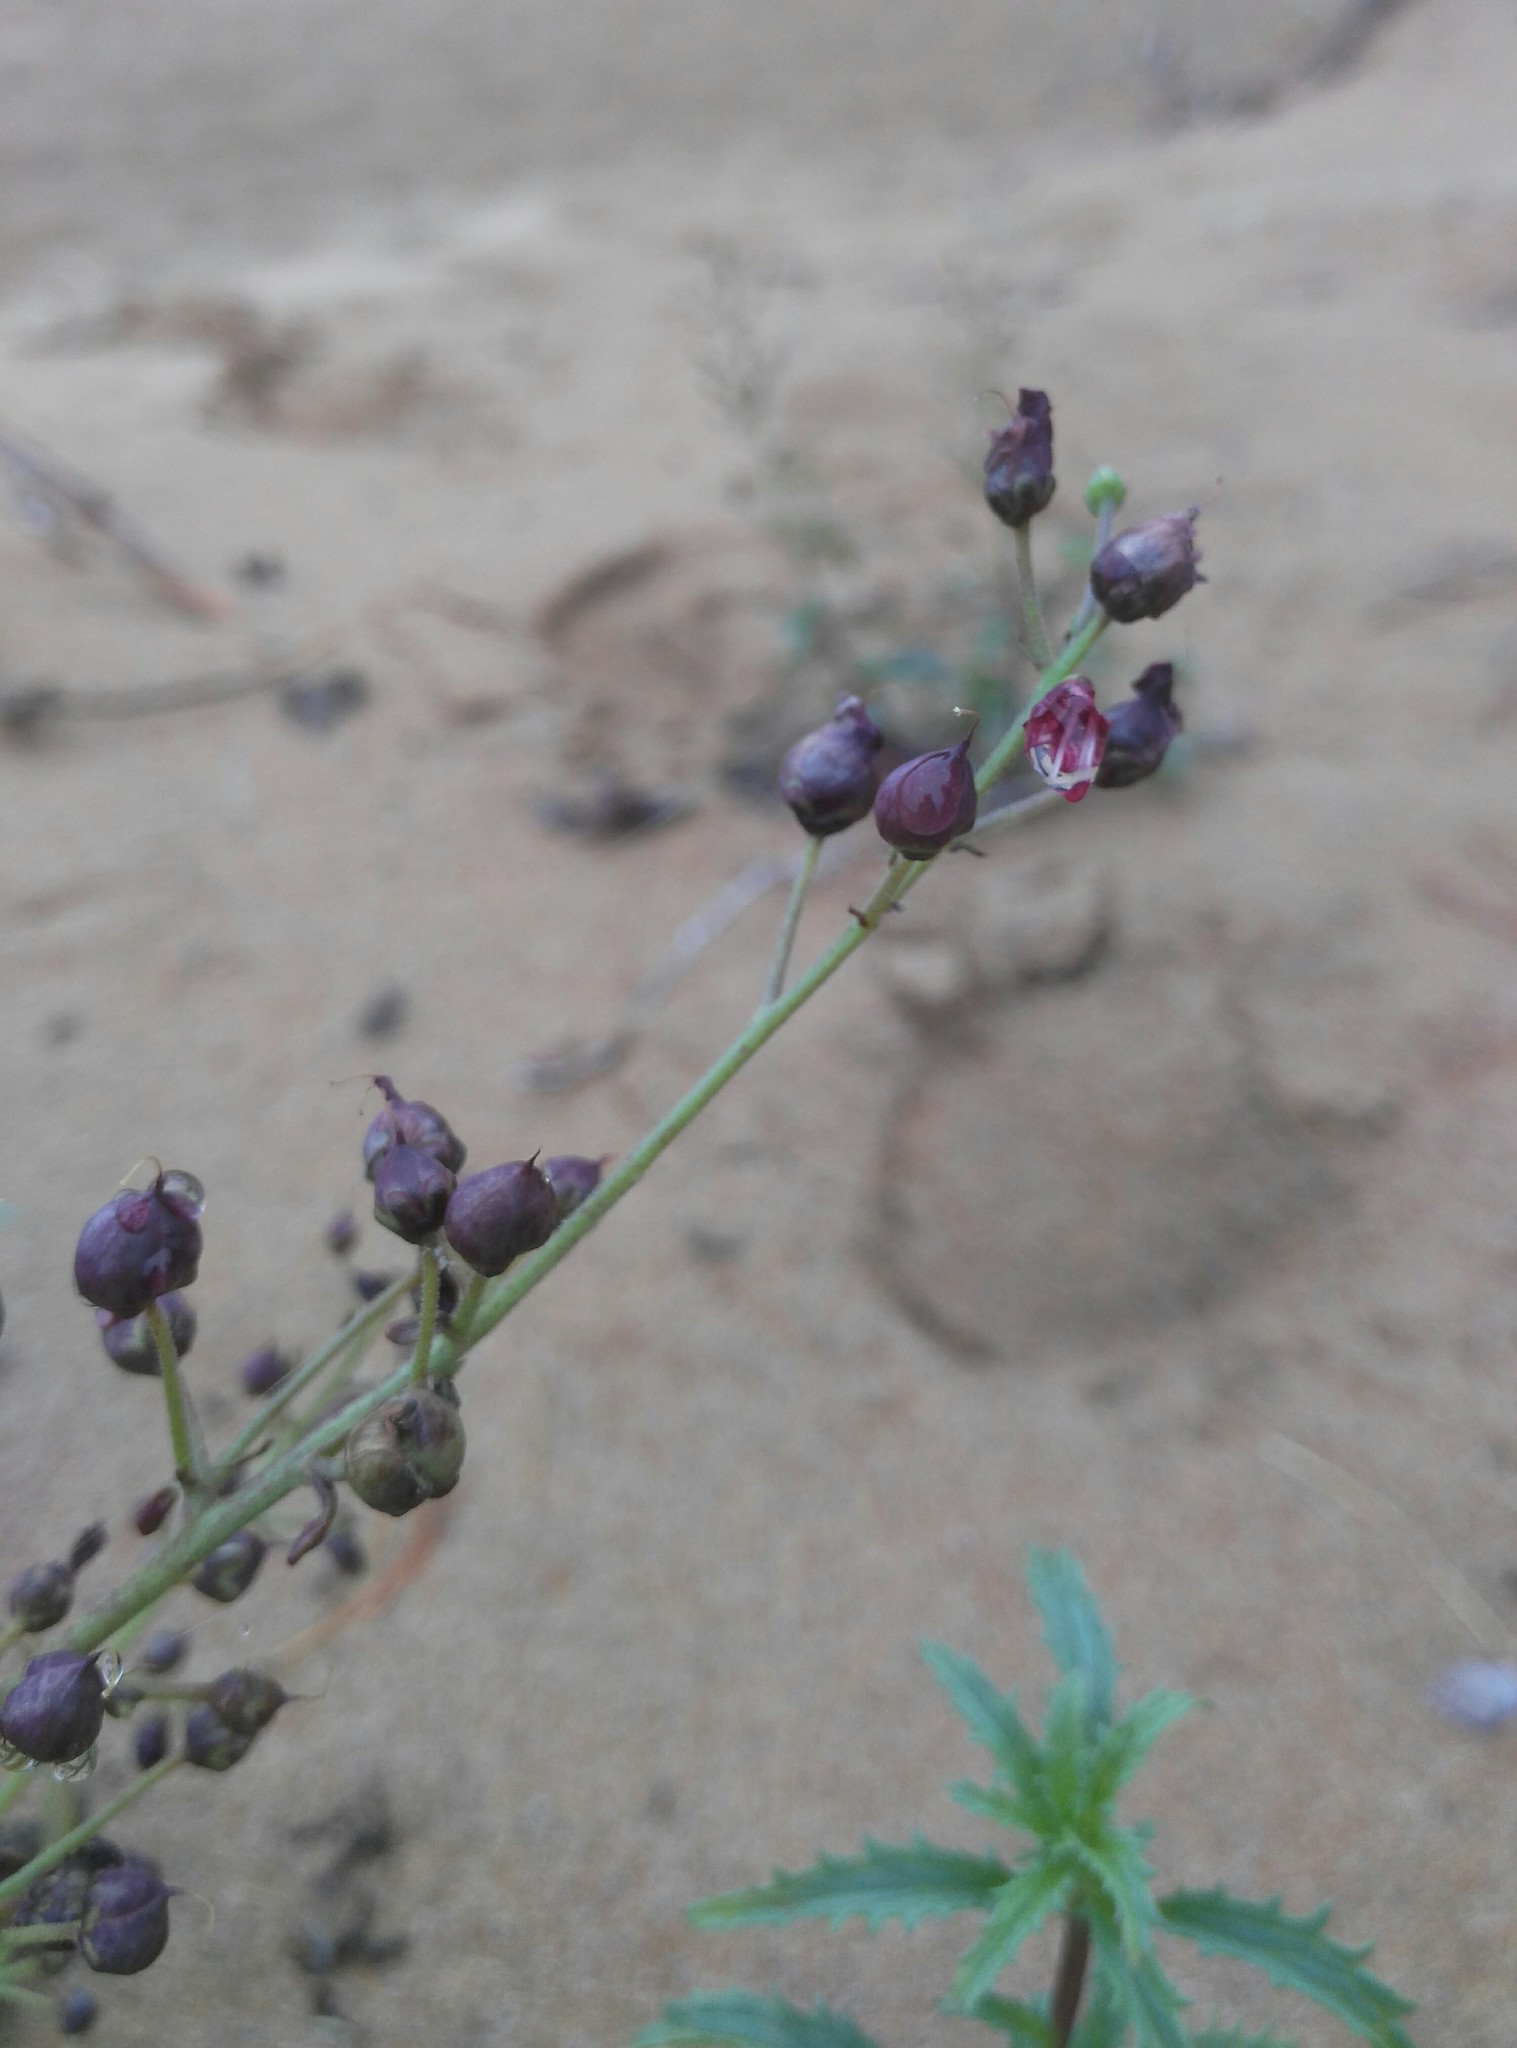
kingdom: Plantae
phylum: Tracheophyta
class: Magnoliopsida
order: Lamiales
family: Scrophulariaceae
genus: Scrophularia
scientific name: Scrophularia incisa
